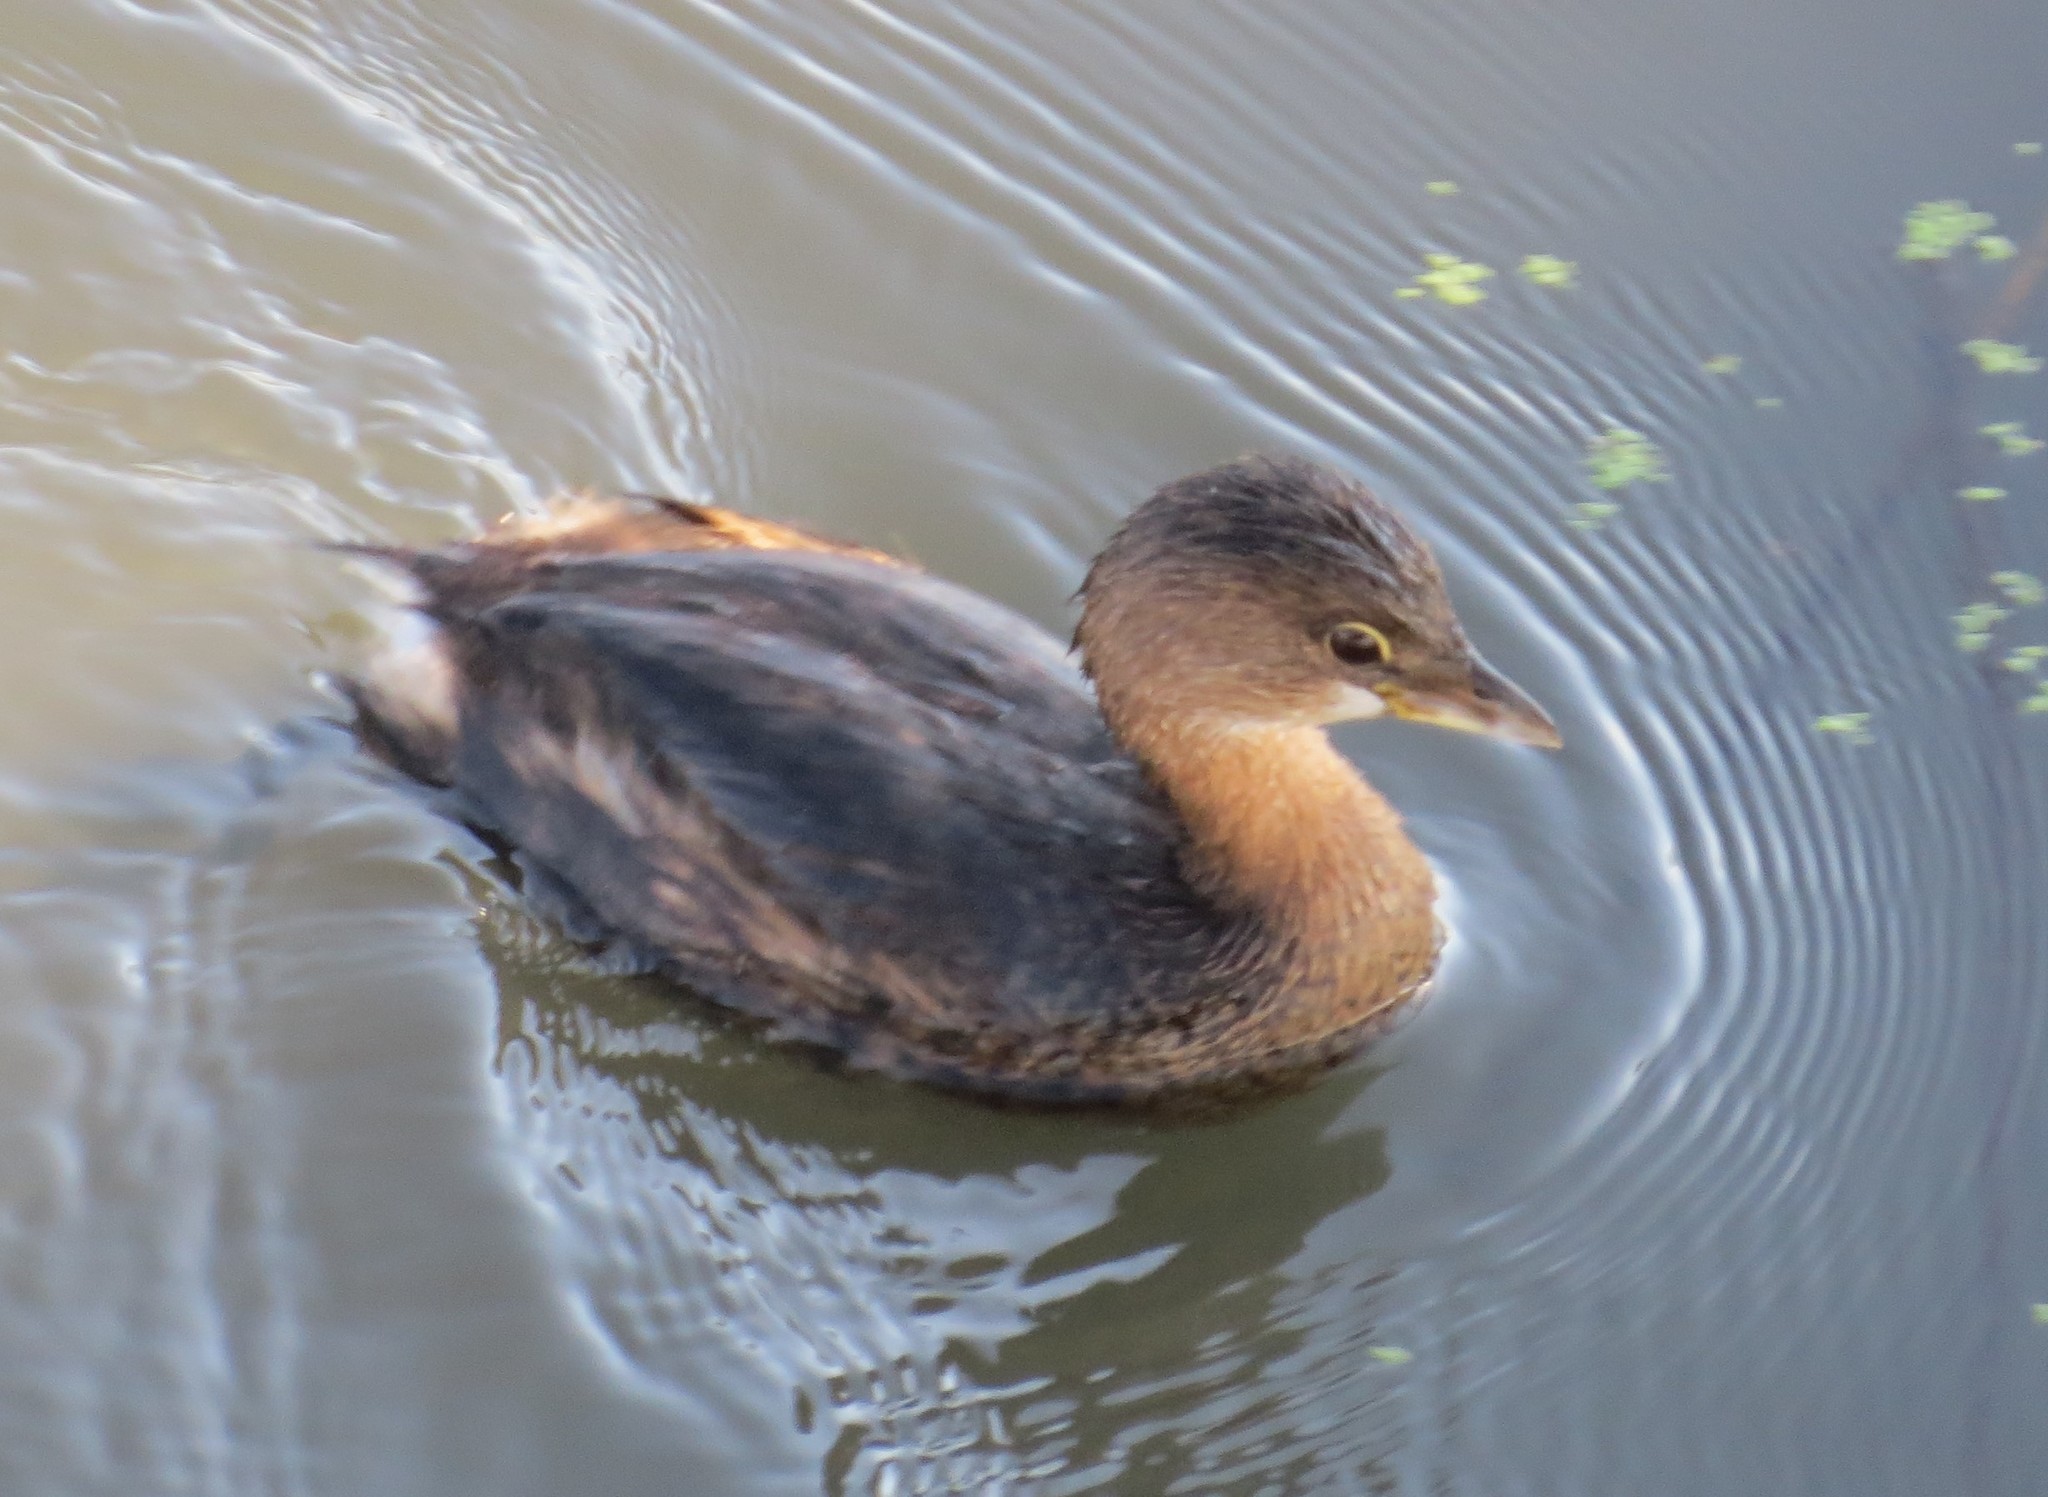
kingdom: Animalia
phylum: Chordata
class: Aves
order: Podicipediformes
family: Podicipedidae
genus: Podilymbus
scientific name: Podilymbus podiceps
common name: Pied-billed grebe
